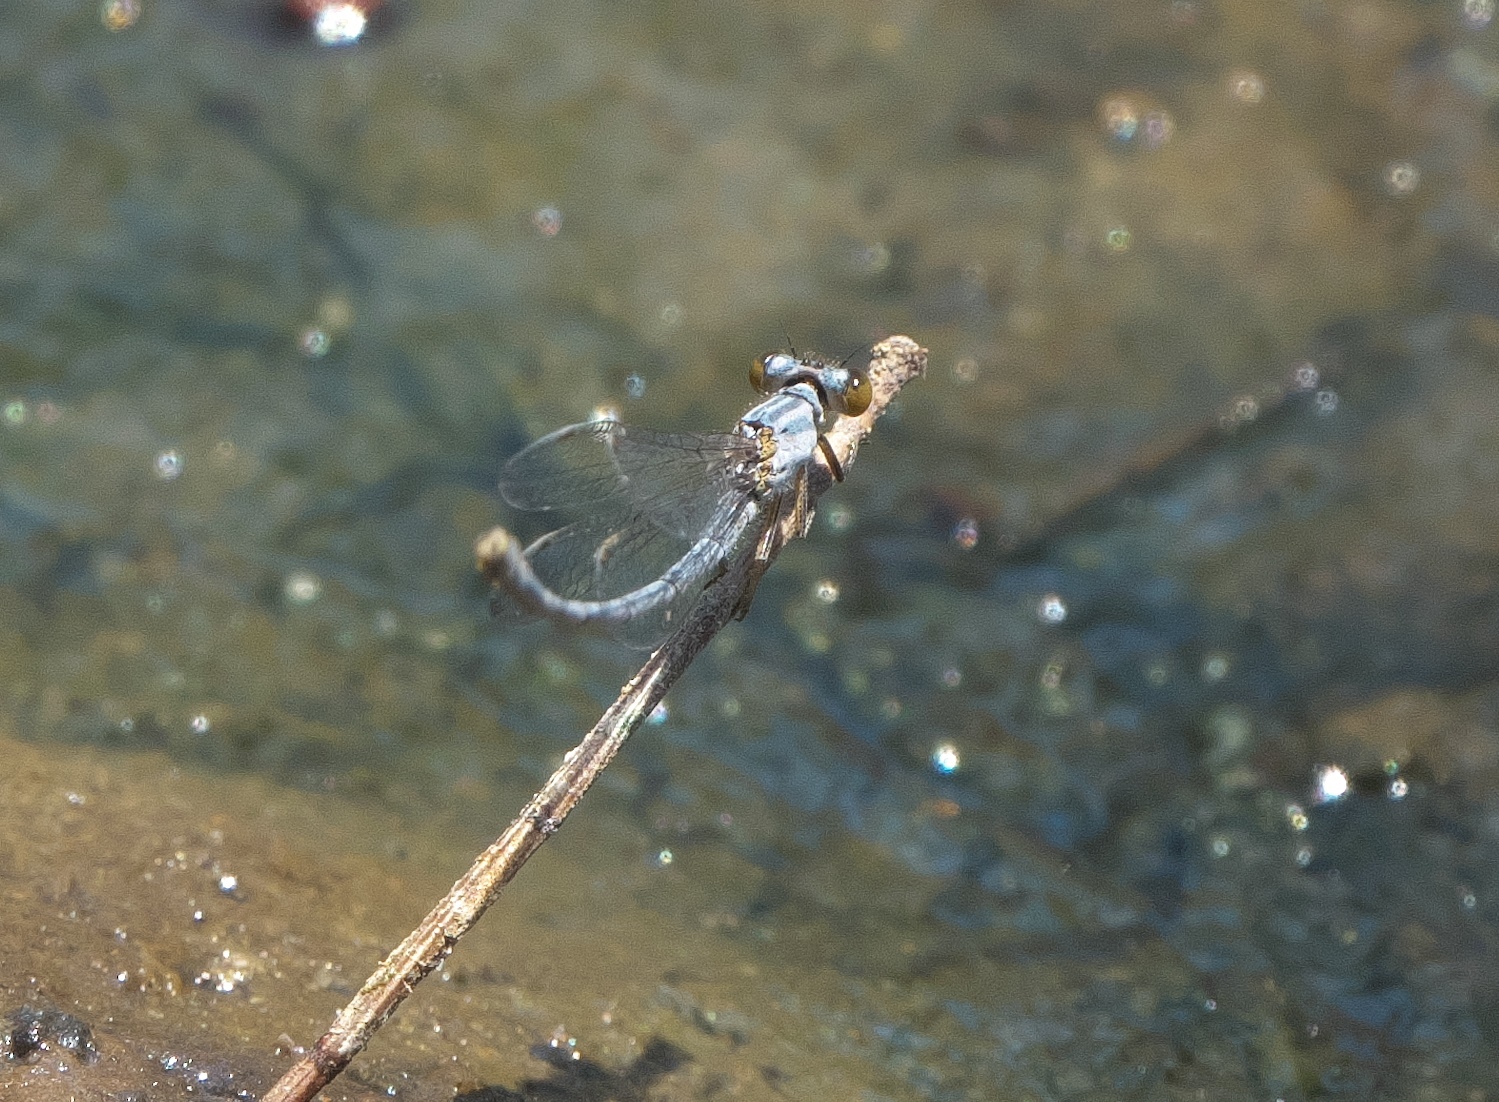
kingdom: Animalia
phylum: Arthropoda
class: Insecta
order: Odonata
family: Coenagrionidae
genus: Ischnura
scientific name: Ischnura heterosticta
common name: Common bluetail
